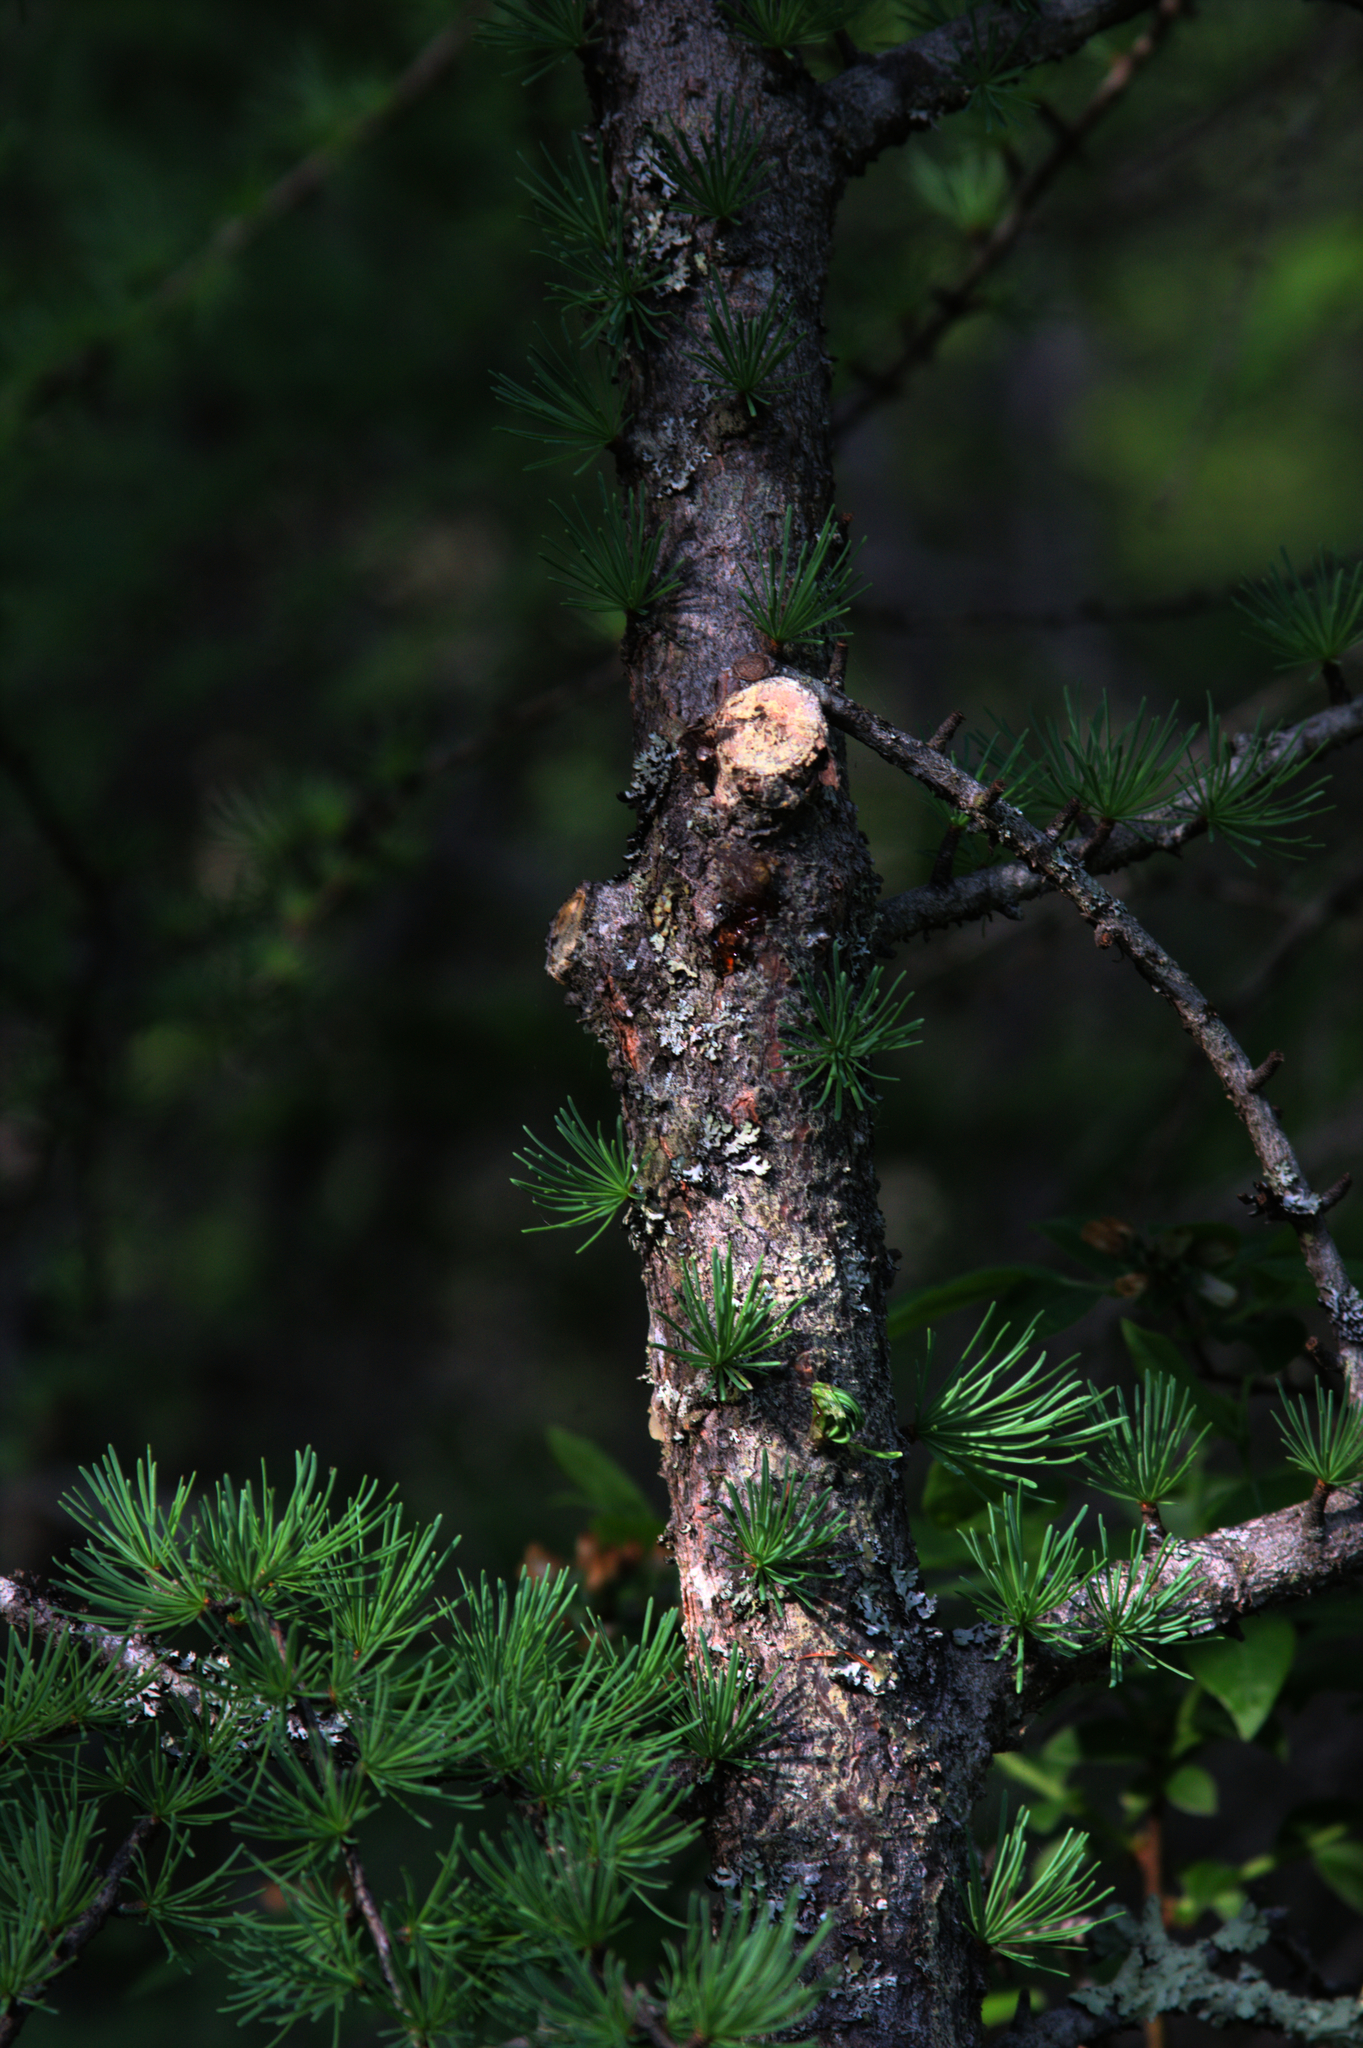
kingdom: Plantae
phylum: Tracheophyta
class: Pinopsida
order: Pinales
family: Pinaceae
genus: Larix
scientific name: Larix laricina
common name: American larch
